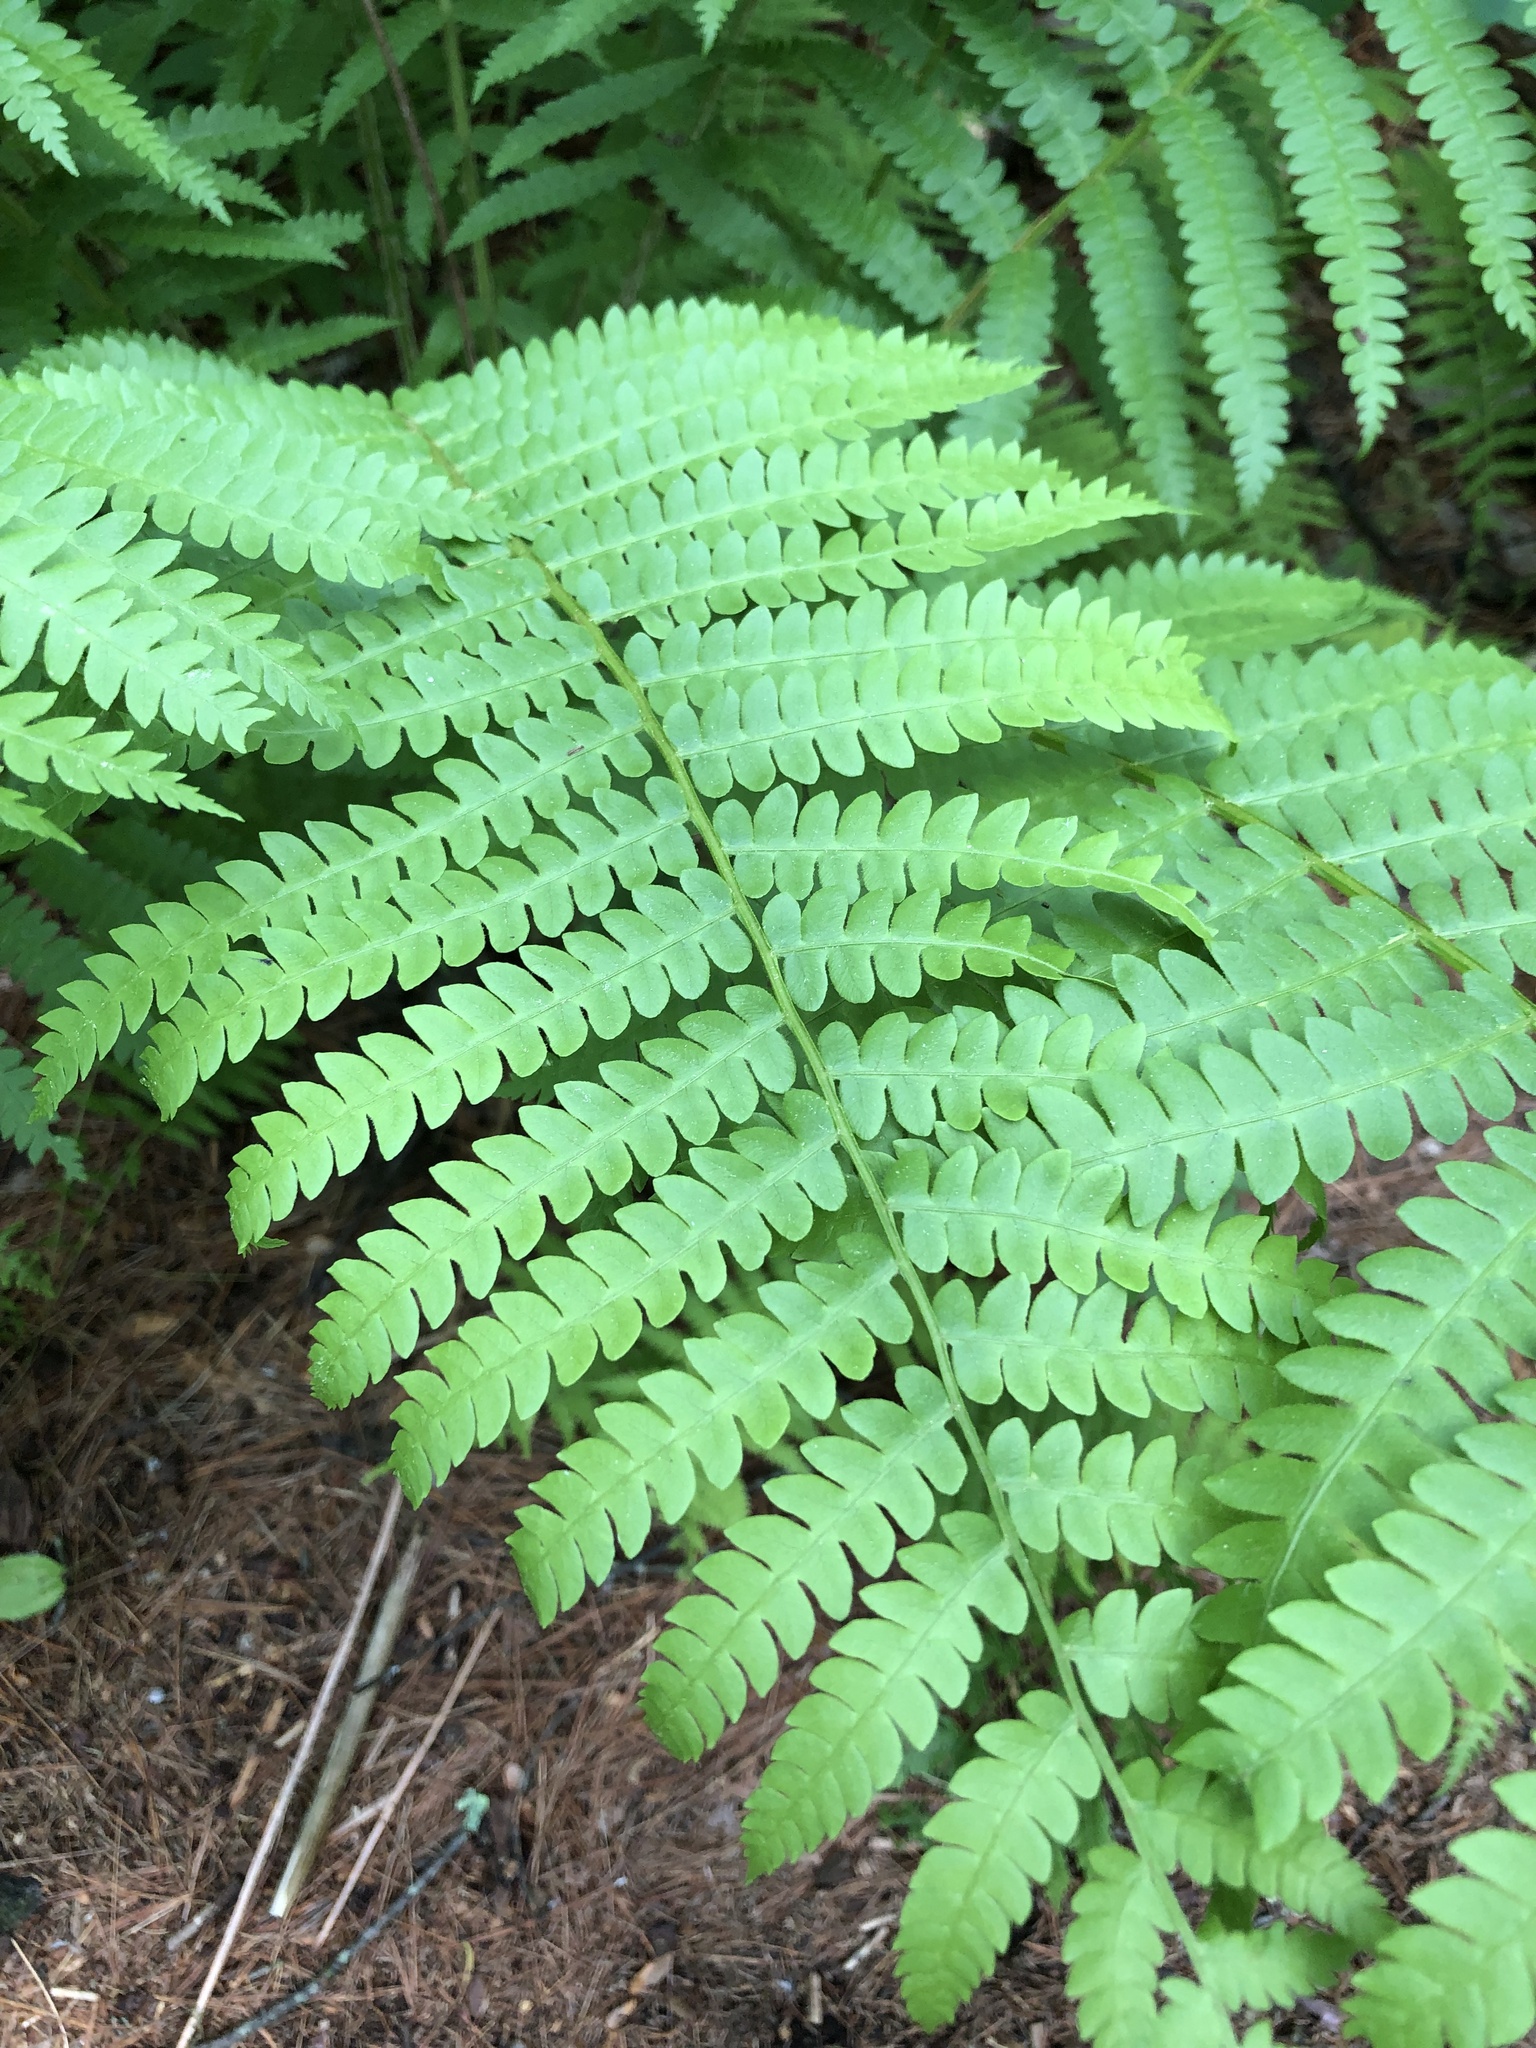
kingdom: Plantae
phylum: Tracheophyta
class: Polypodiopsida
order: Osmundales
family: Osmundaceae
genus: Osmundastrum
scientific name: Osmundastrum cinnamomeum
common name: Cinnamon fern
